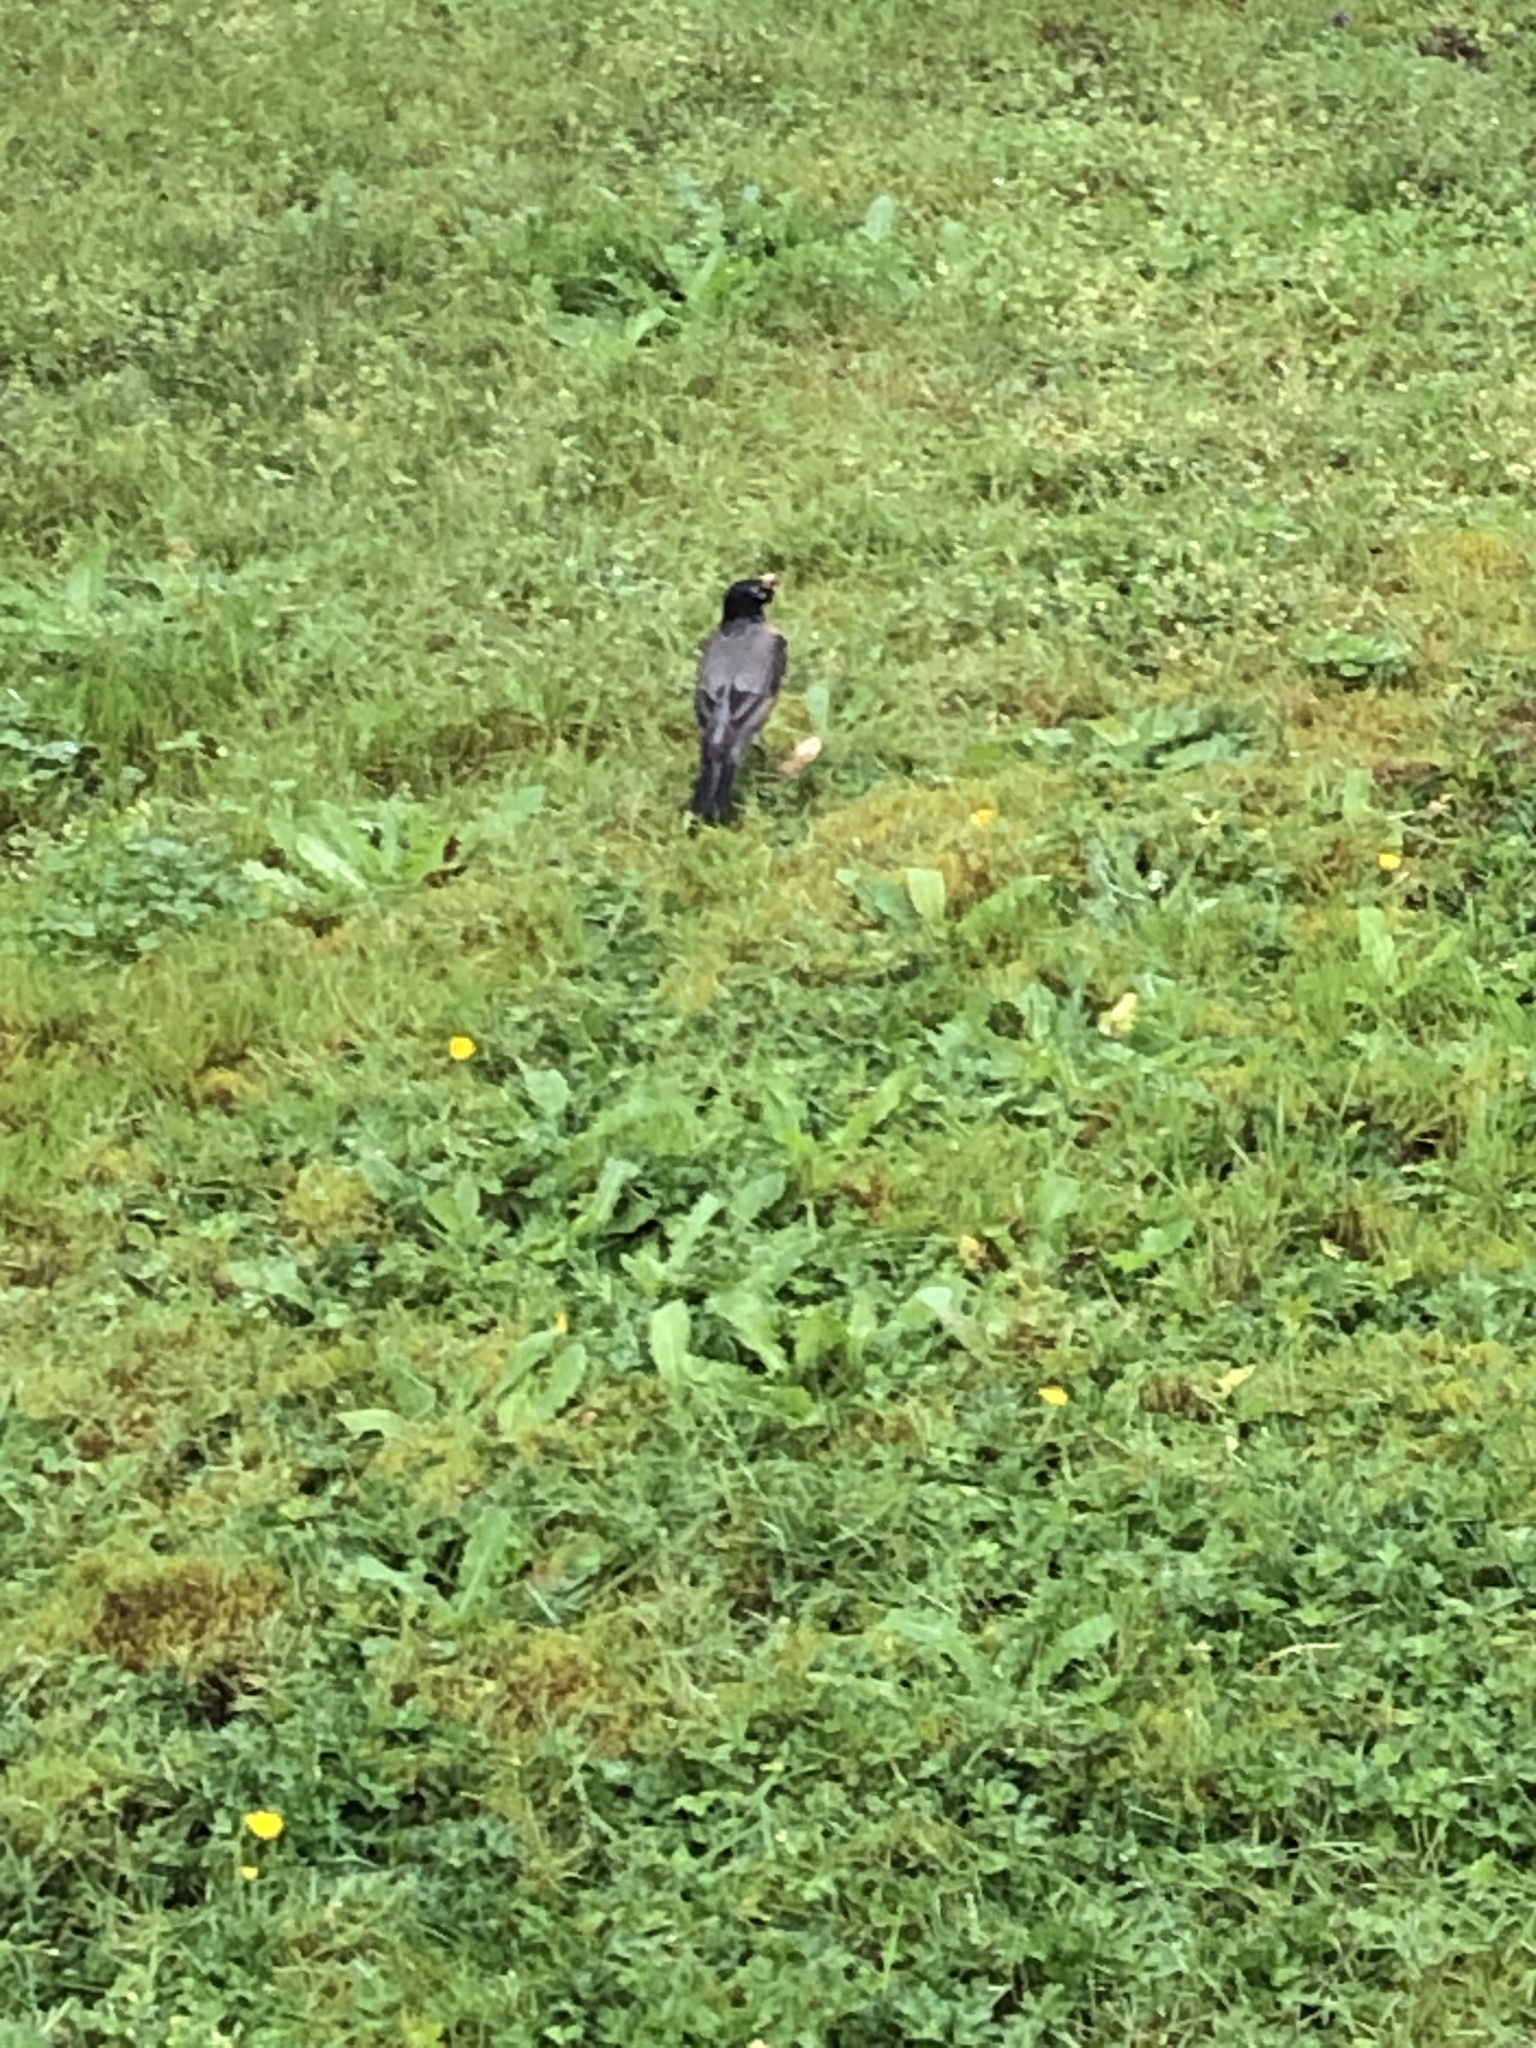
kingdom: Animalia
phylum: Chordata
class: Aves
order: Passeriformes
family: Turdidae
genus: Turdus
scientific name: Turdus migratorius
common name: American robin
